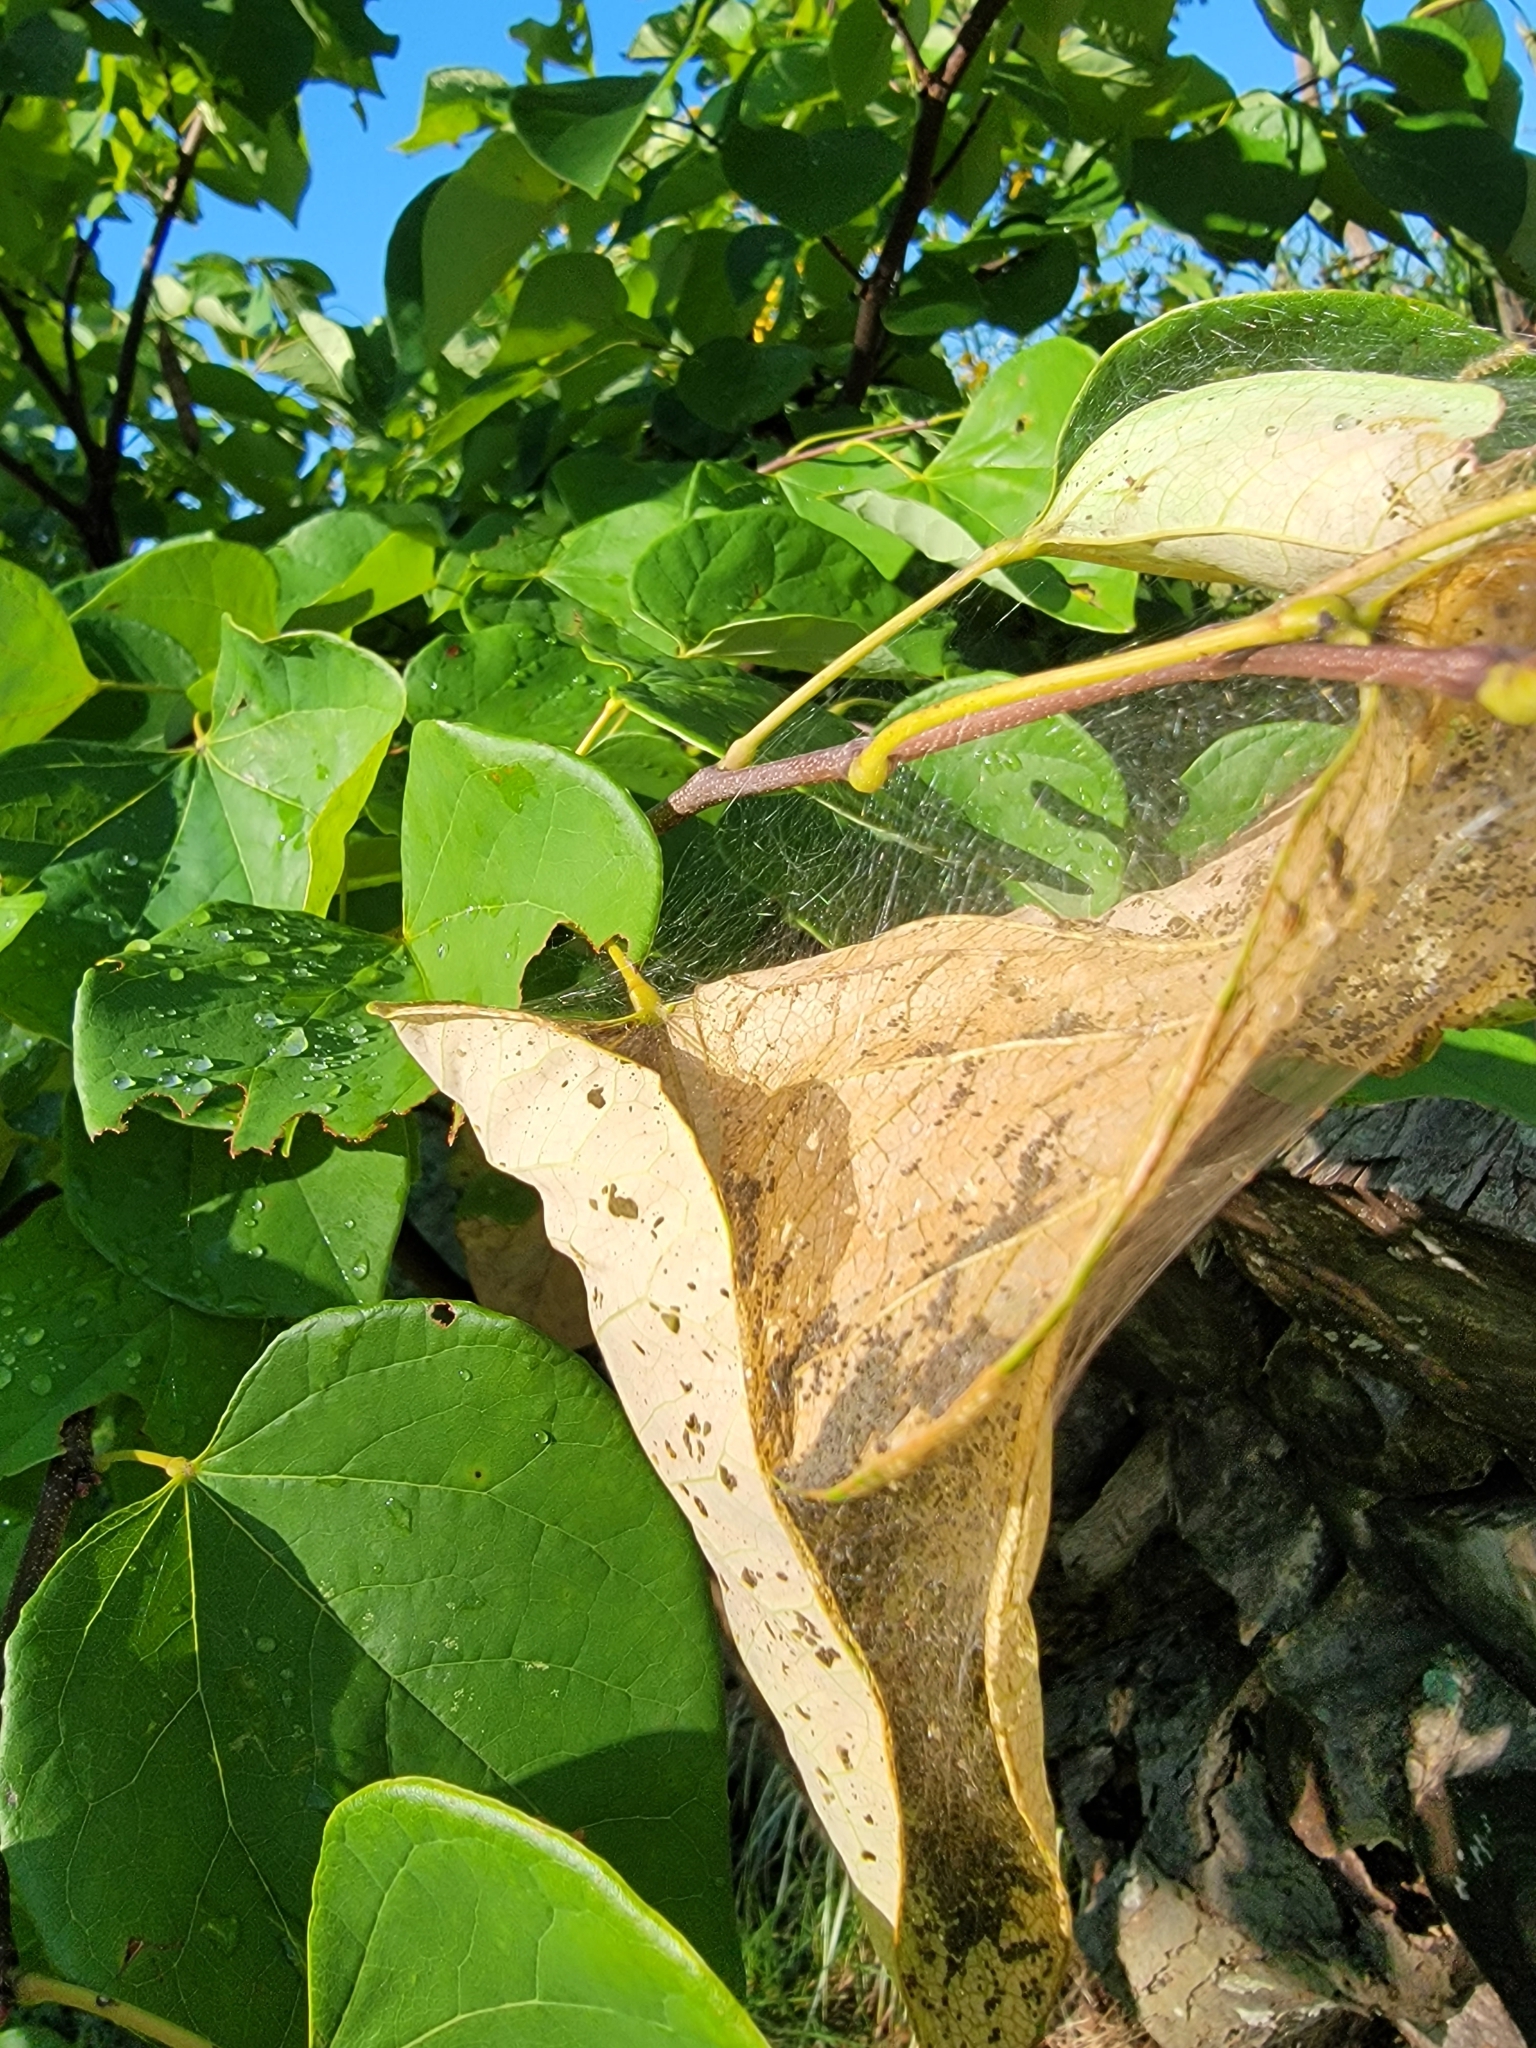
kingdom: Animalia
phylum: Arthropoda
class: Insecta
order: Lepidoptera
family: Gelechiidae
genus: Fascista
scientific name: Fascista cercerisella
